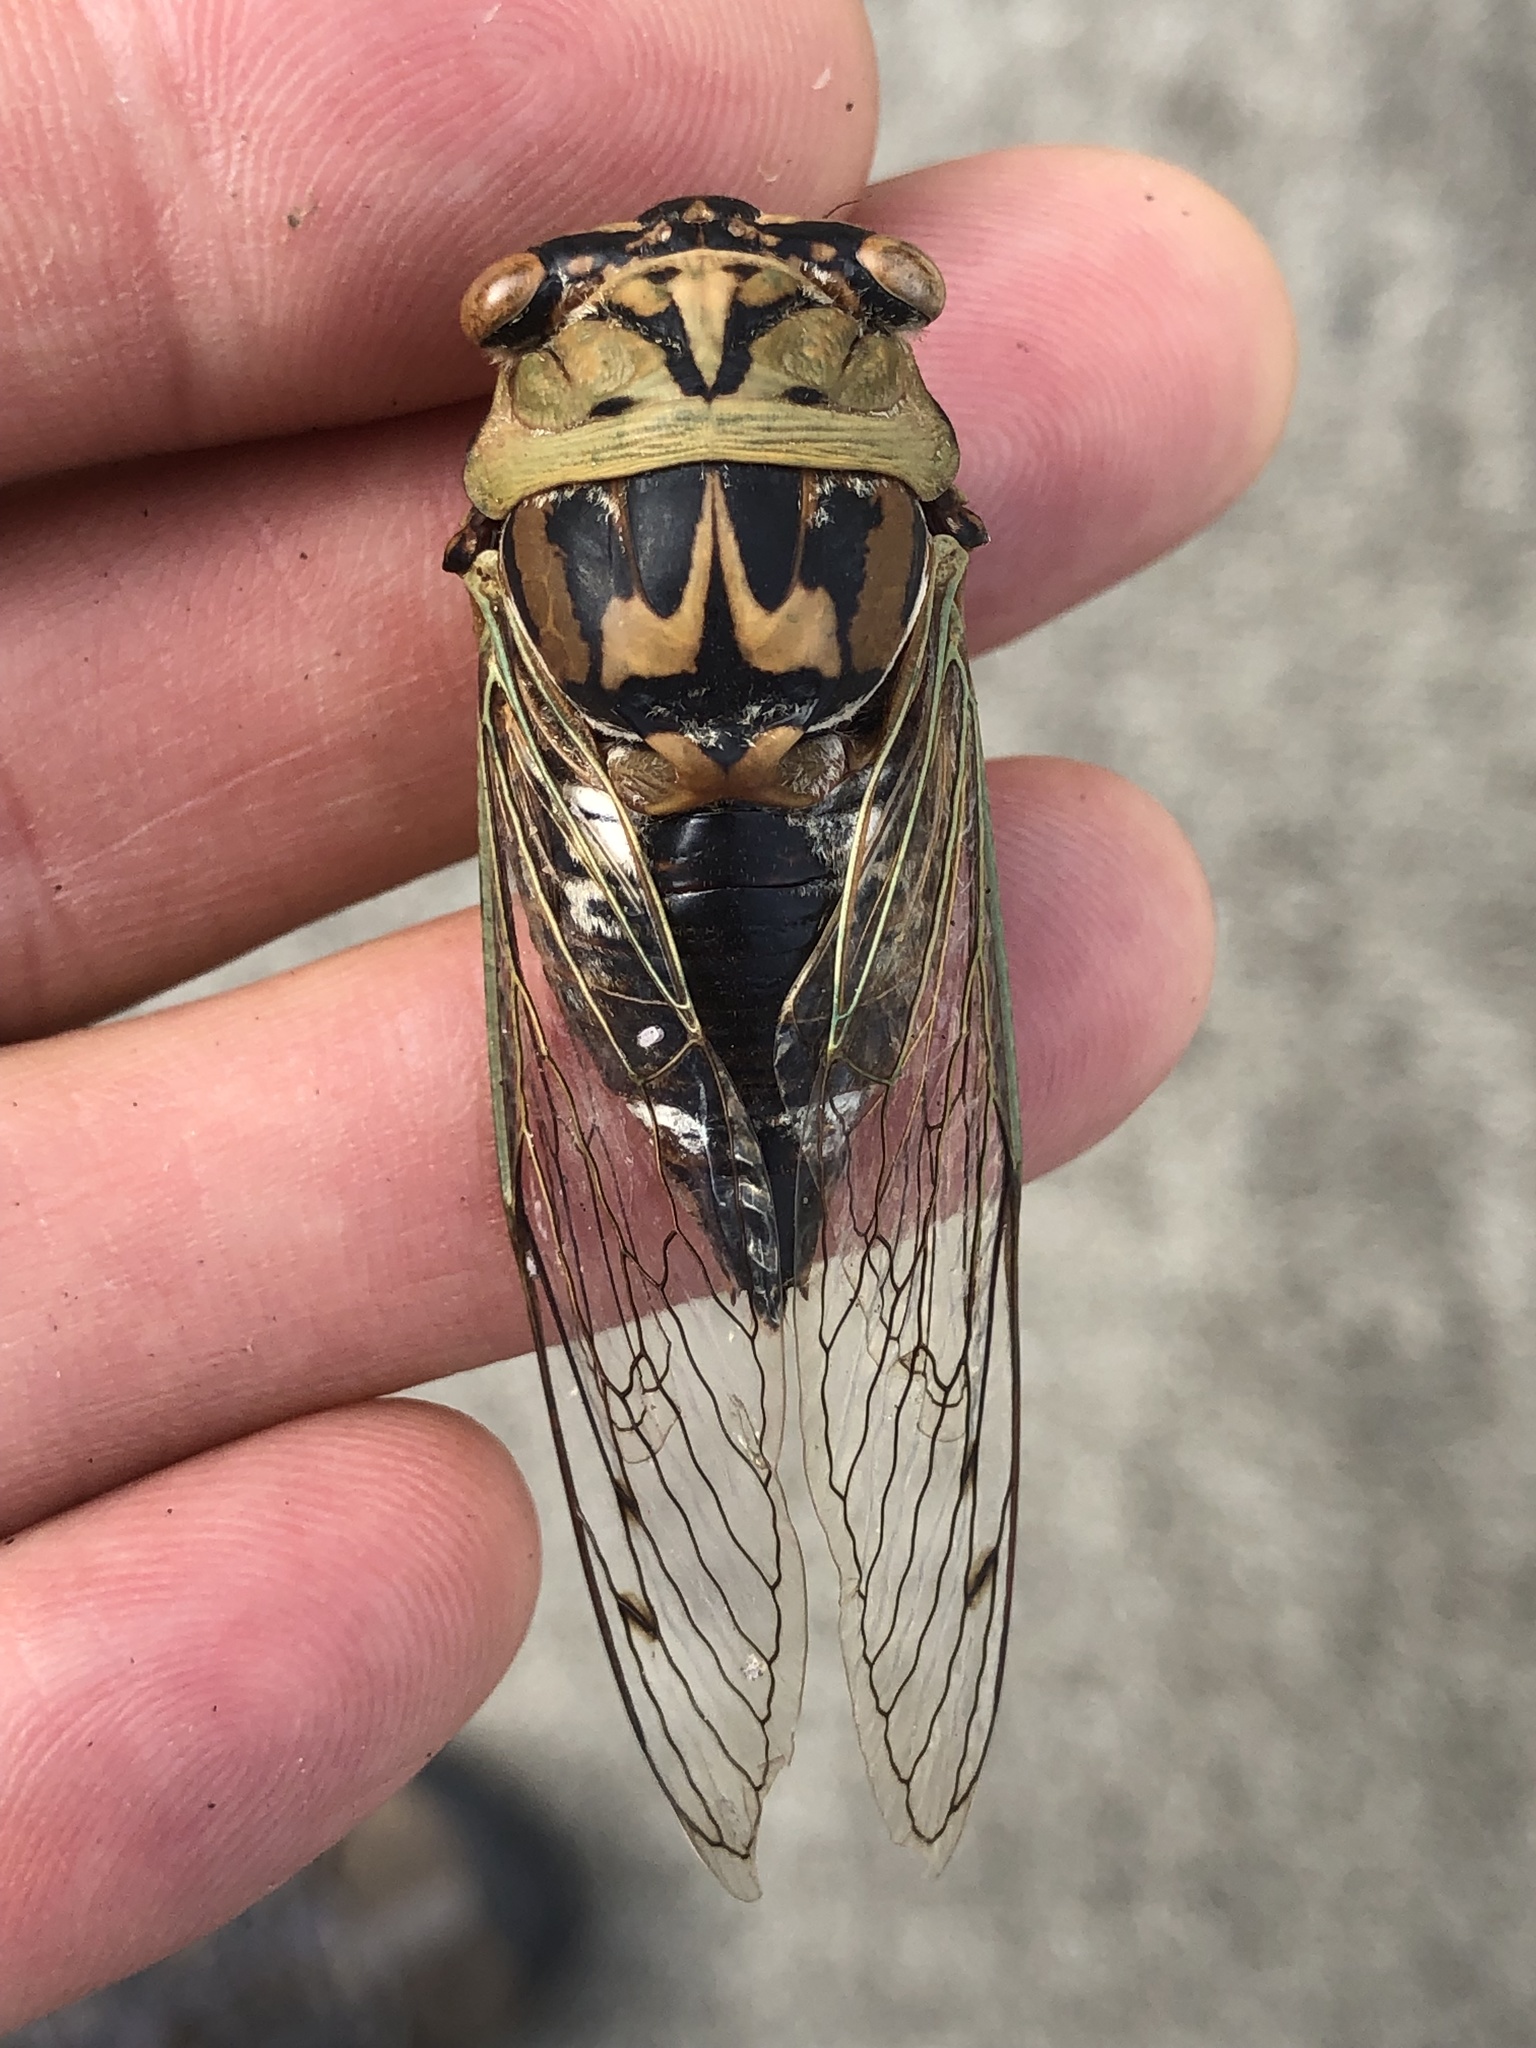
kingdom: Animalia
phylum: Arthropoda
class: Insecta
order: Hemiptera
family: Cicadidae
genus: Megatibicen
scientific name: Megatibicen resh
